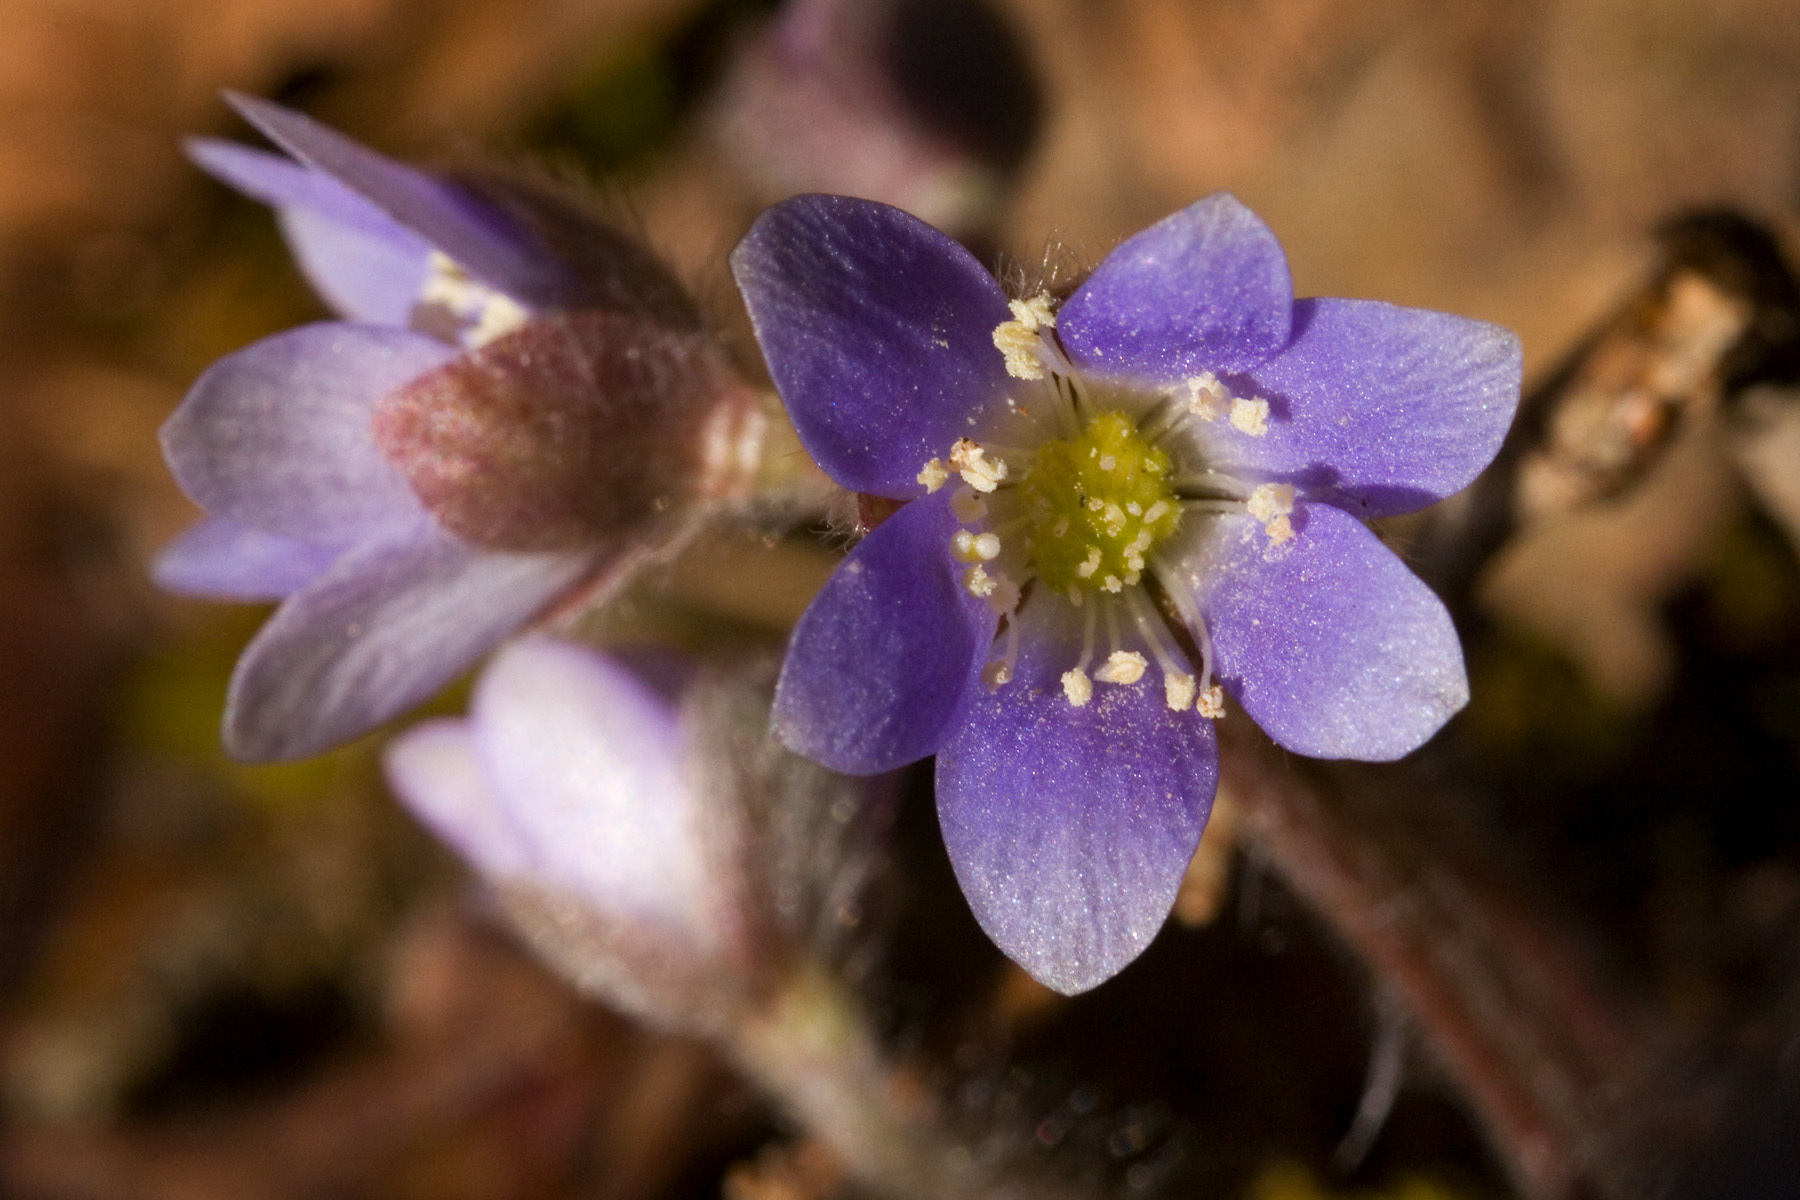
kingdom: Plantae
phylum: Tracheophyta
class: Magnoliopsida
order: Ranunculales
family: Ranunculaceae
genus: Hepatica
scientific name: Hepatica americana
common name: American hepatica
